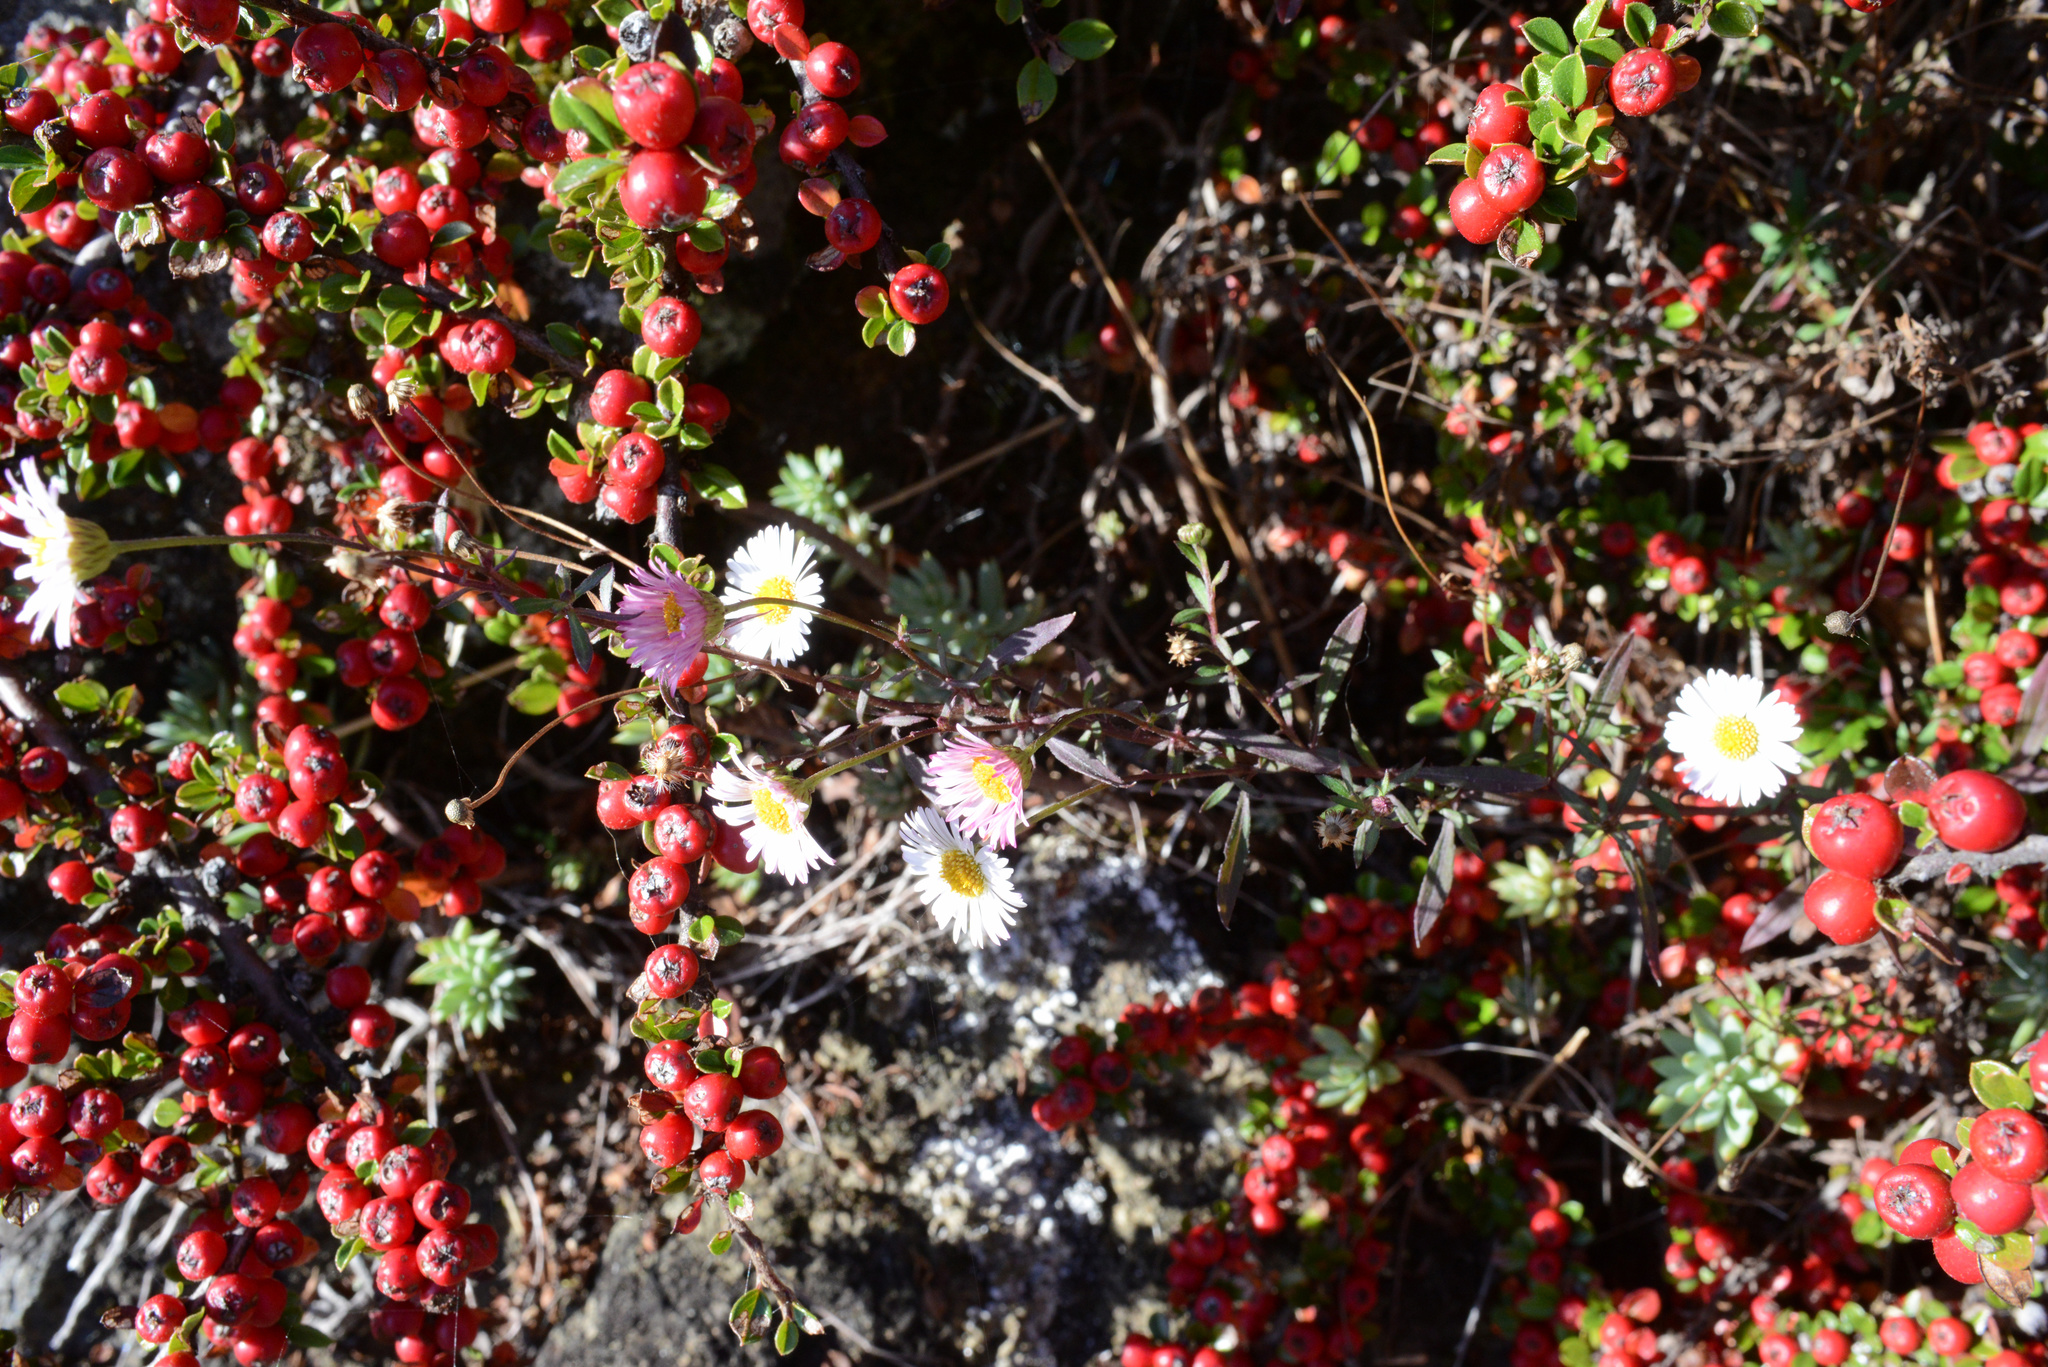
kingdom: Plantae
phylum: Tracheophyta
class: Magnoliopsida
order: Asterales
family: Asteraceae
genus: Erigeron
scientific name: Erigeron karvinskianus
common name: Mexican fleabane
